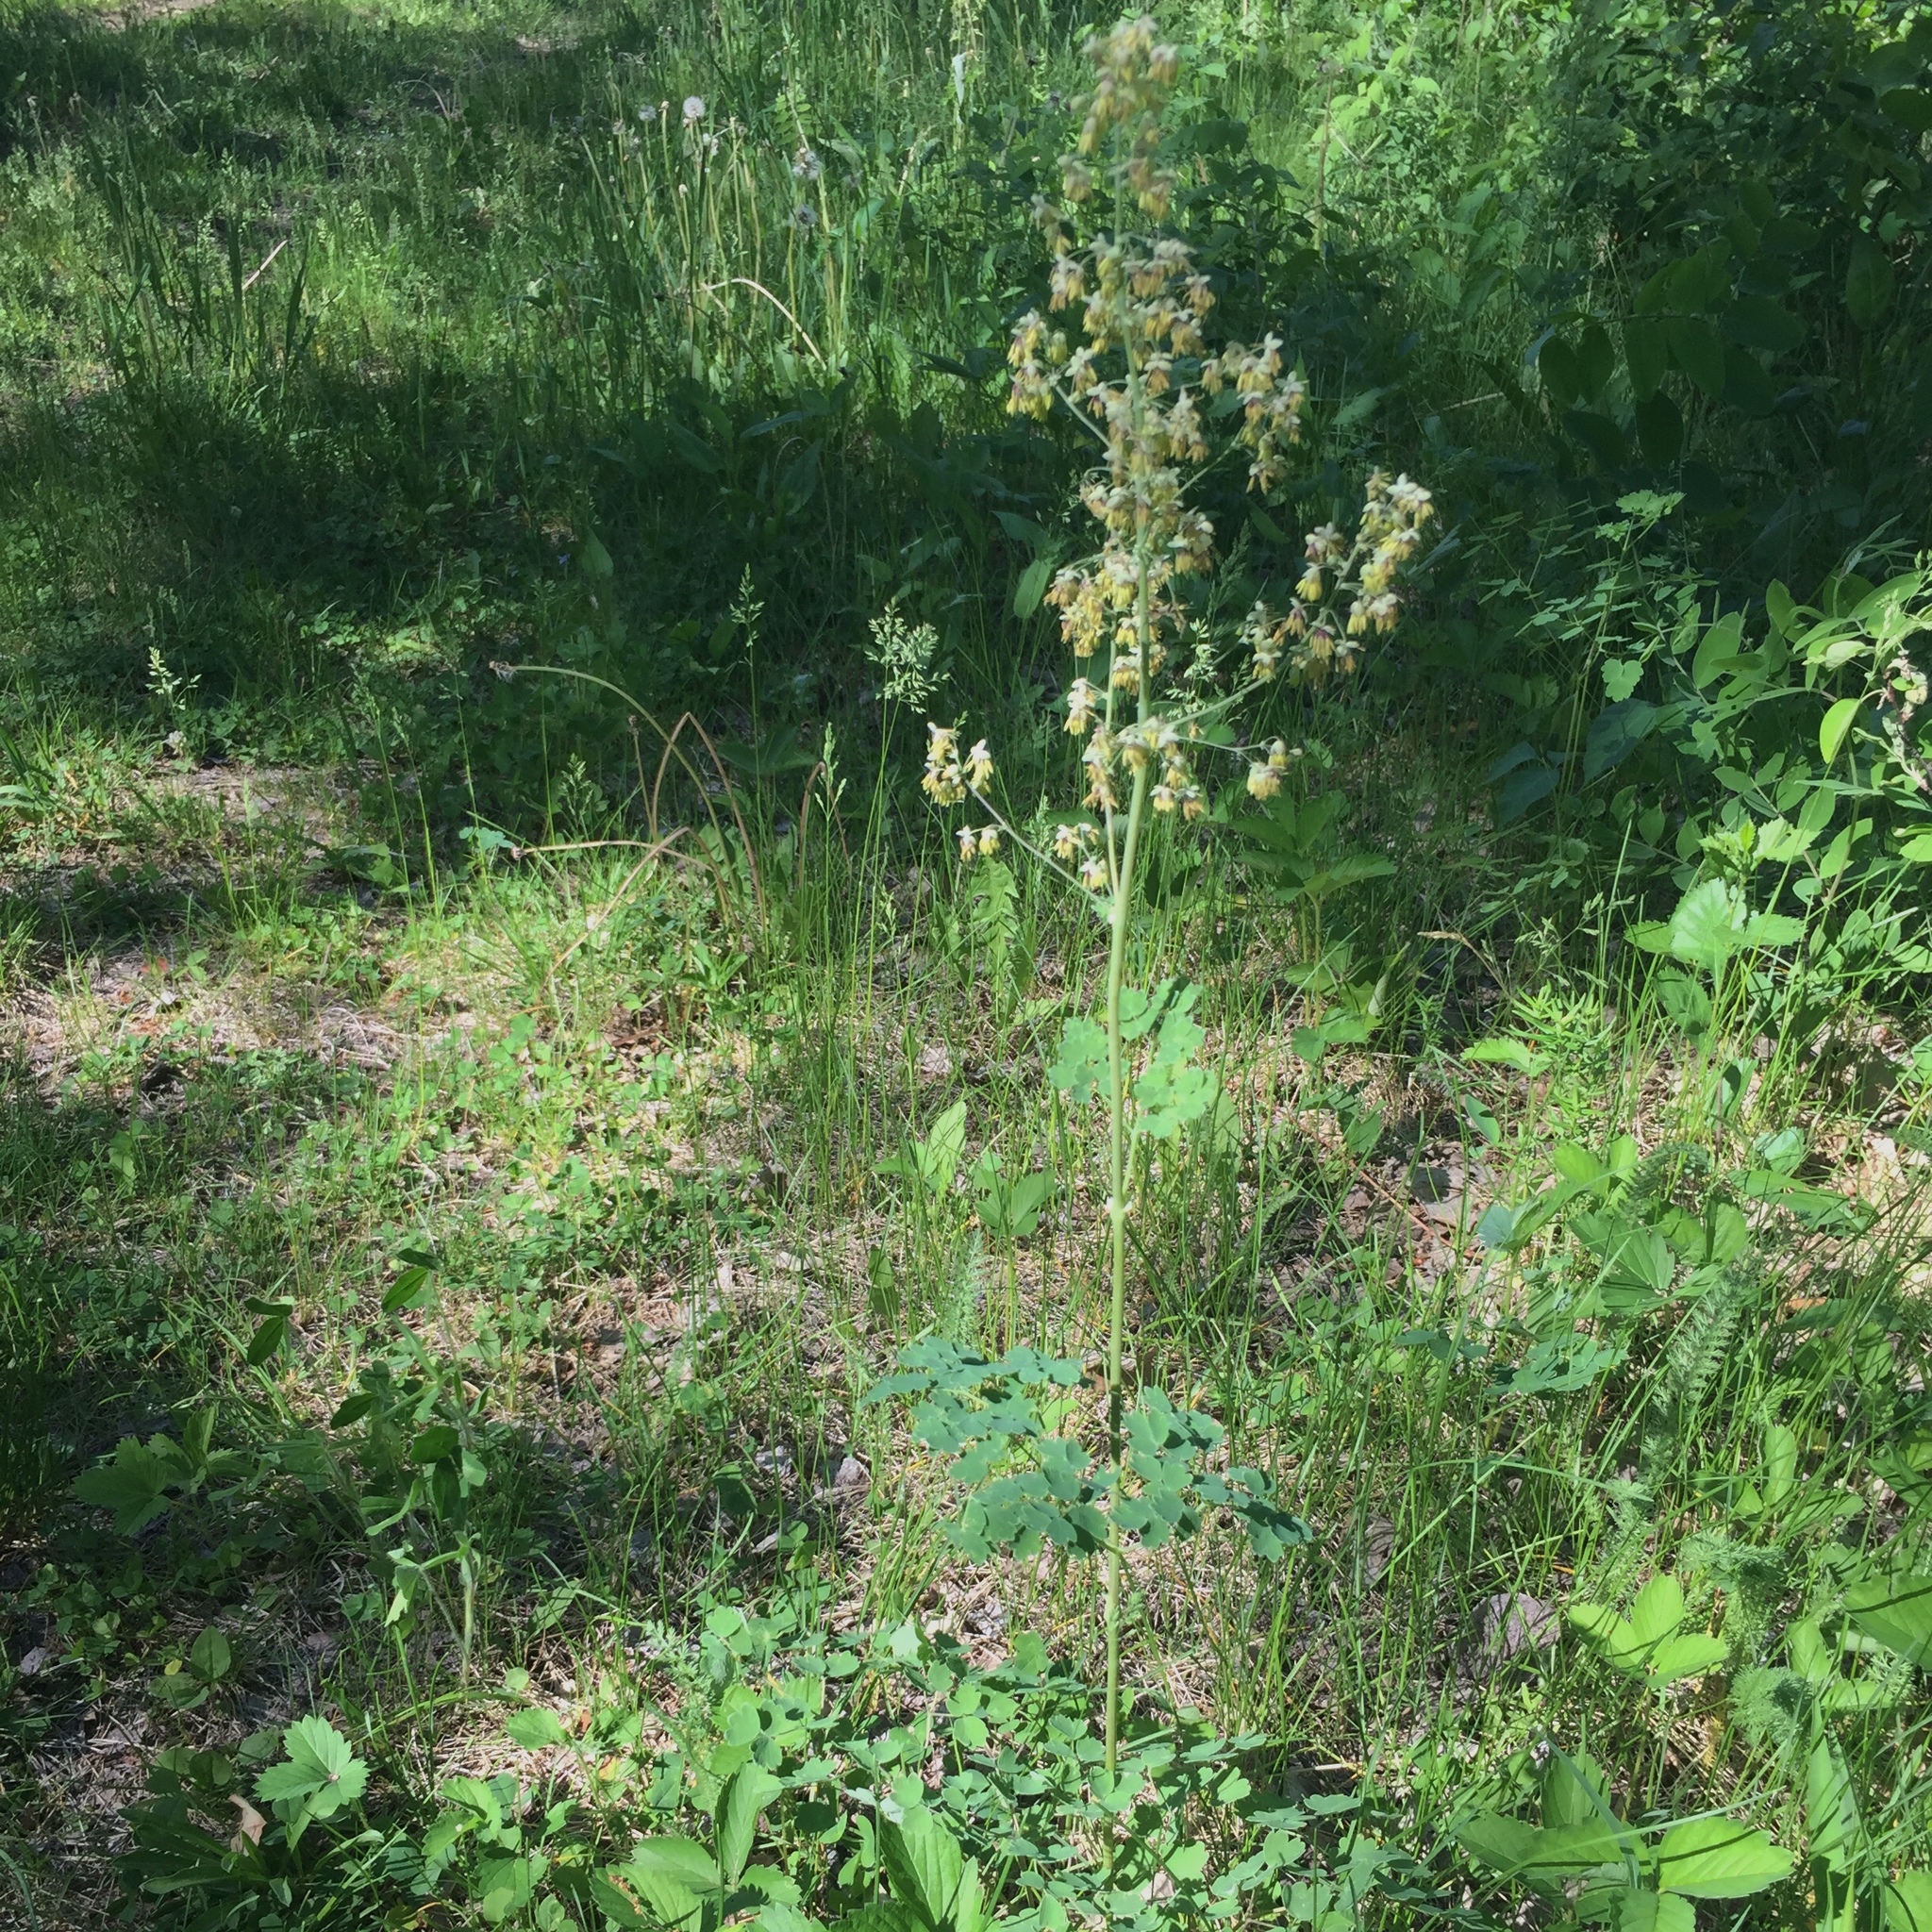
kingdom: Plantae
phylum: Tracheophyta
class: Magnoliopsida
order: Ranunculales
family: Ranunculaceae
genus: Thalictrum
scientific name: Thalictrum venulosum
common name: Early meadow-rue
